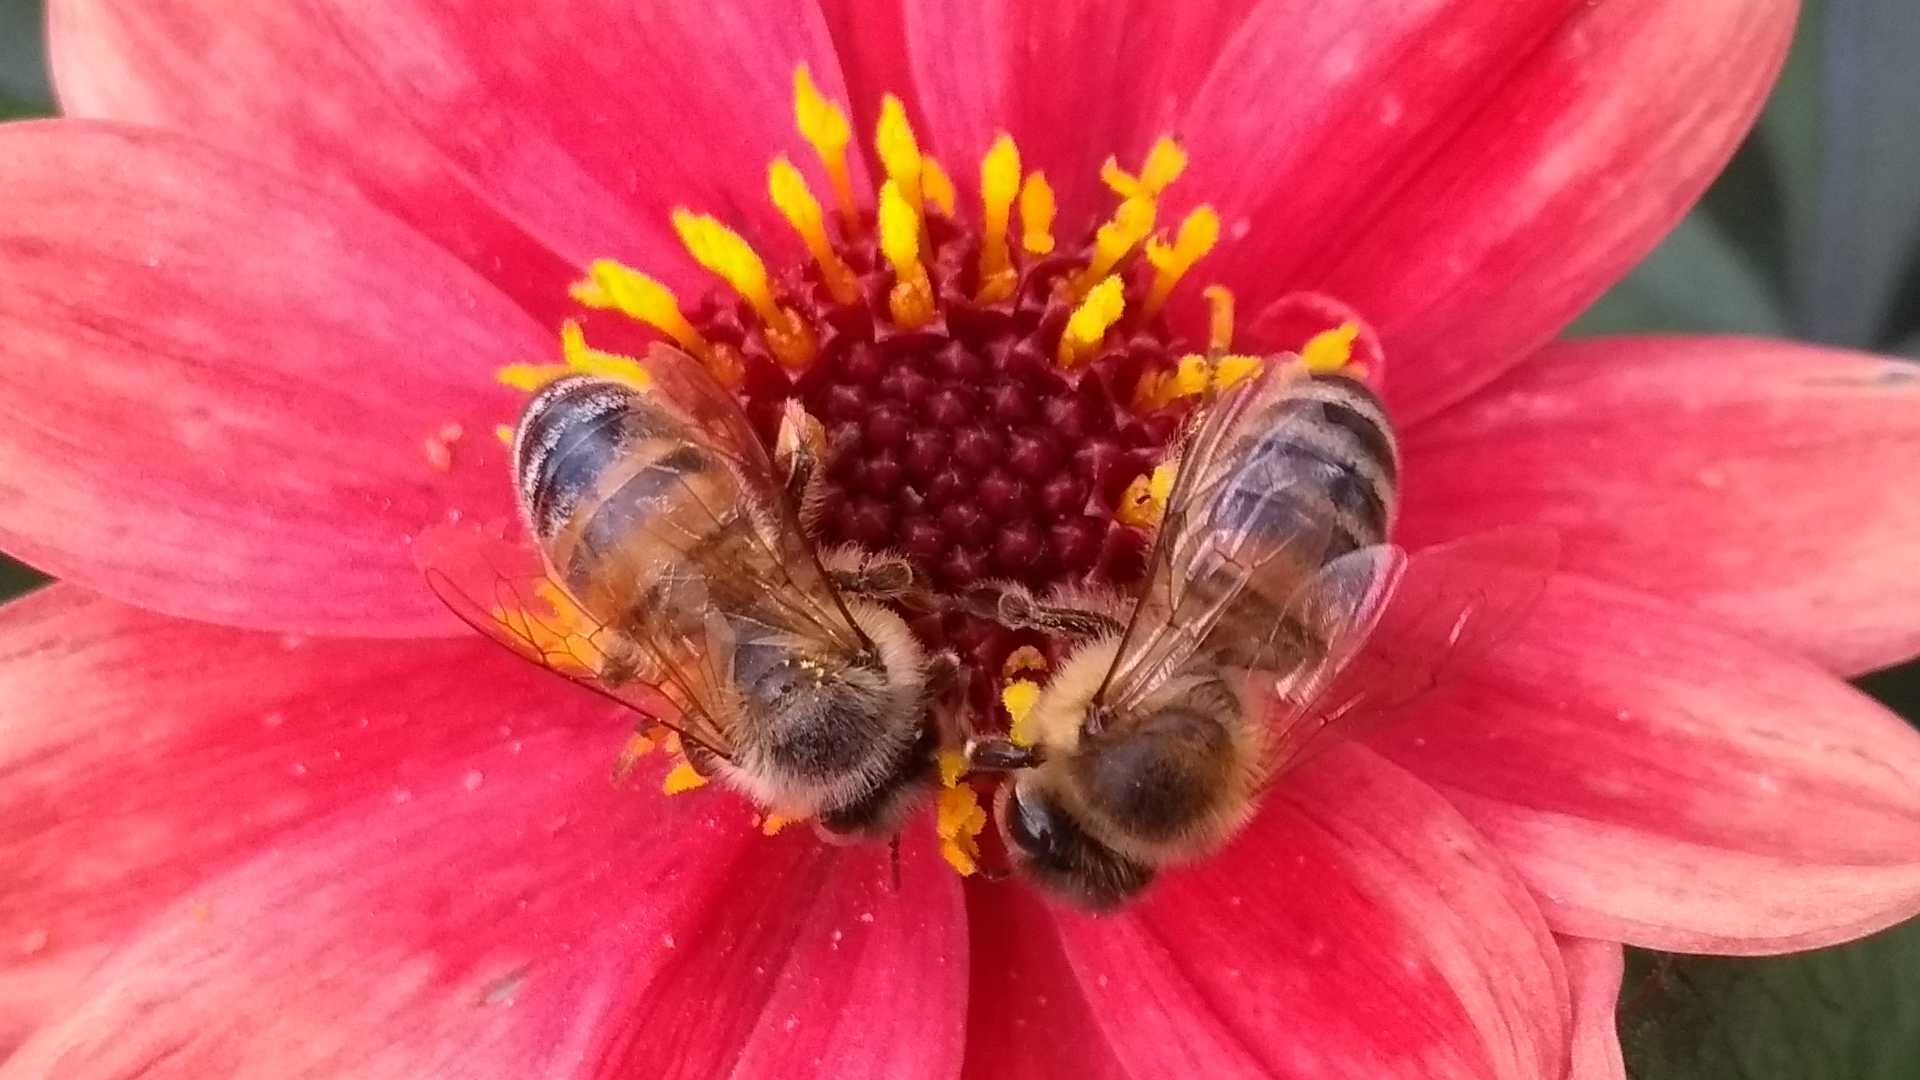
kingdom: Animalia
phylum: Arthropoda
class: Insecta
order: Hymenoptera
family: Apidae
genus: Apis
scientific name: Apis mellifera
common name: Honey bee
